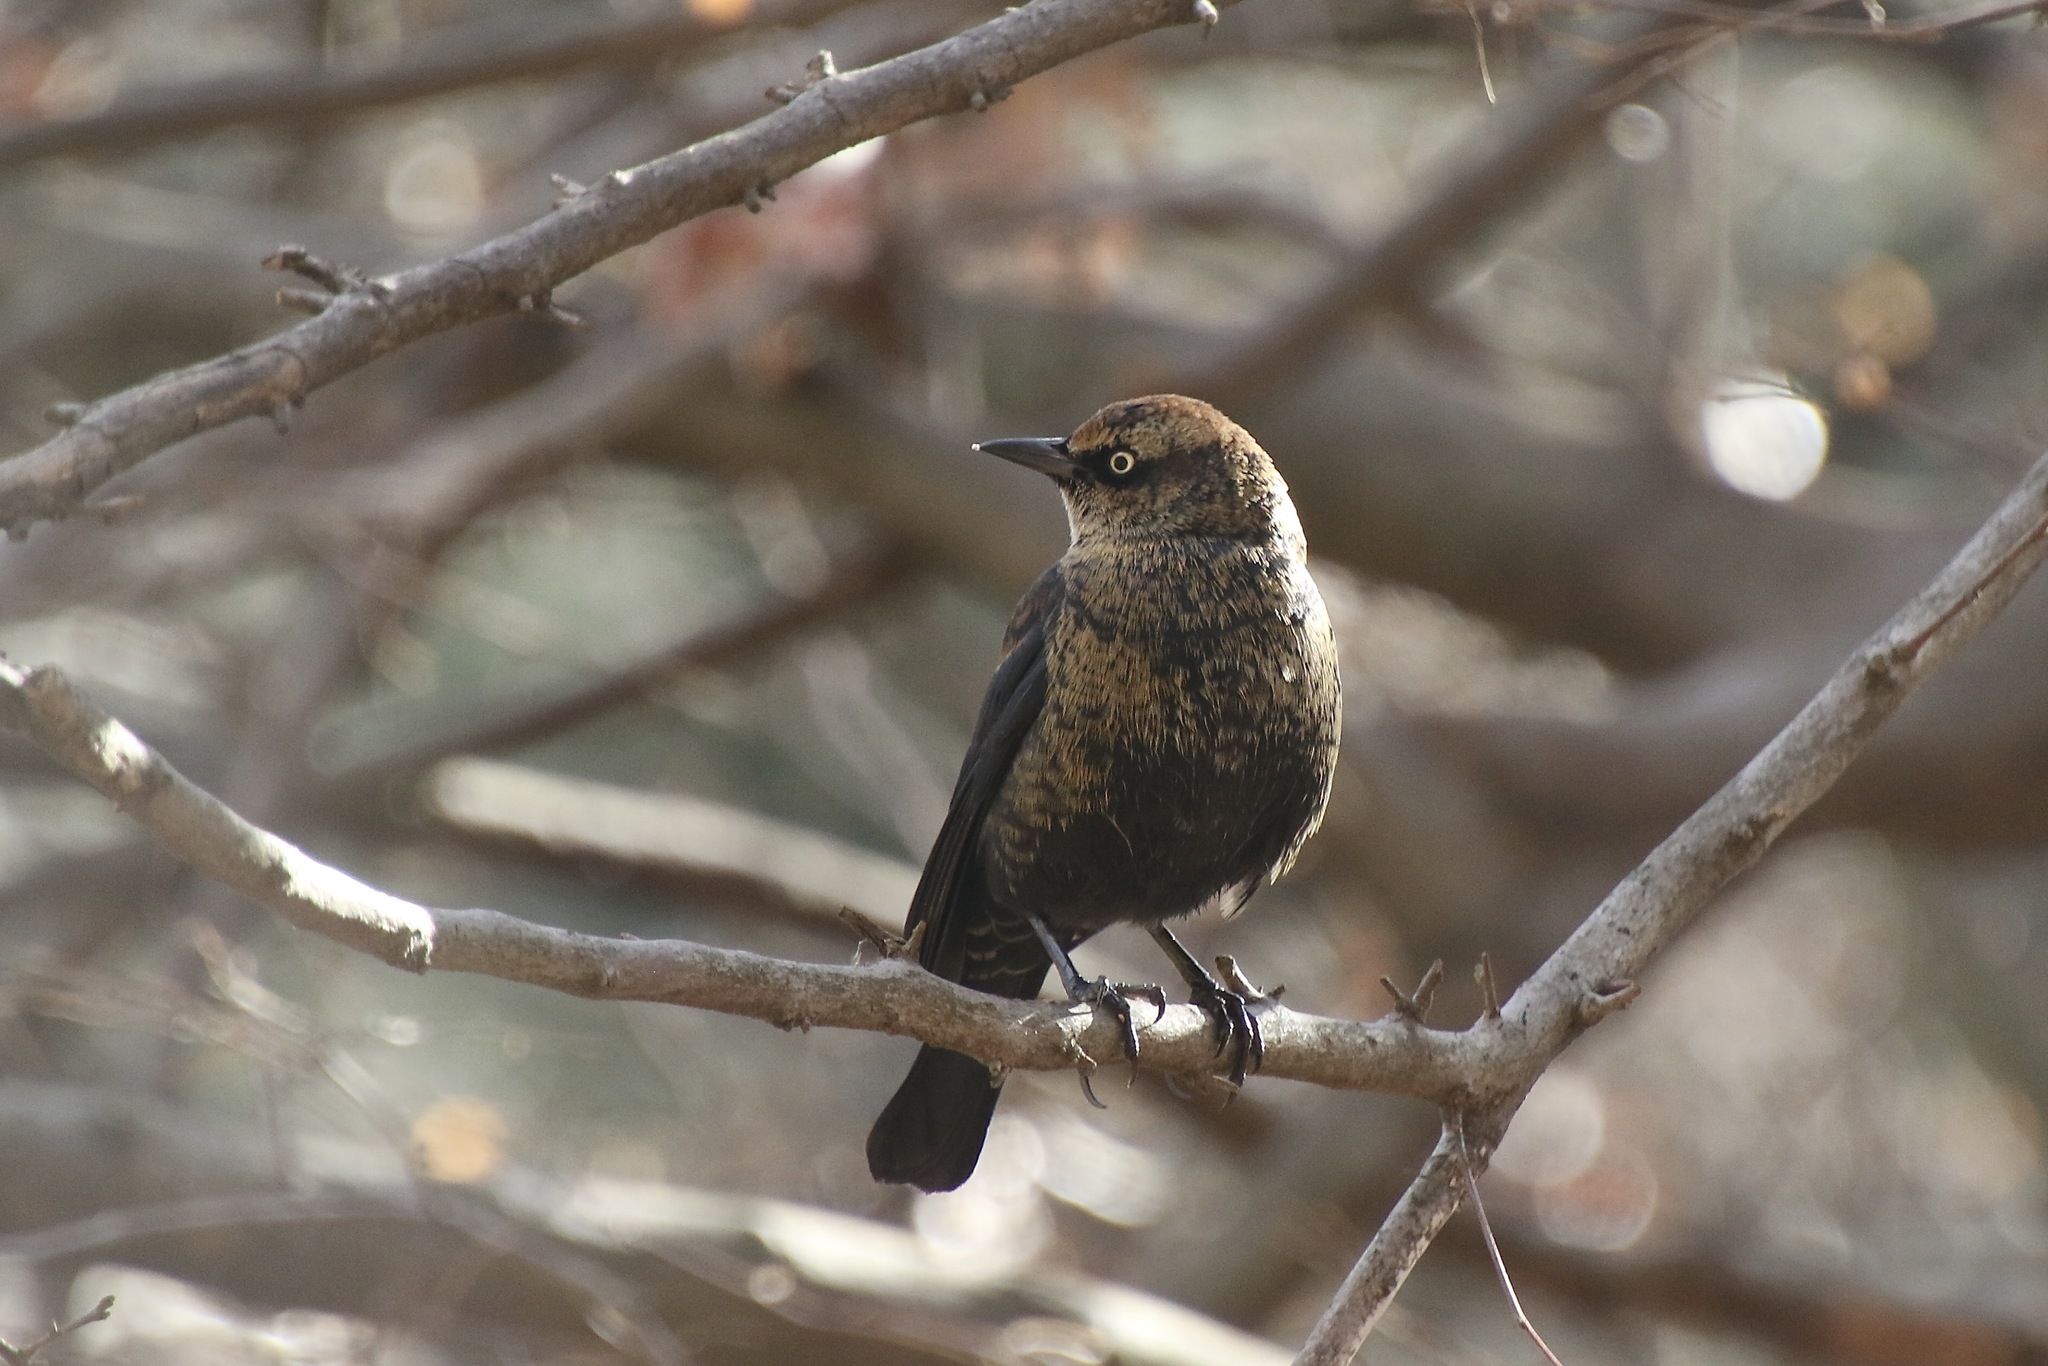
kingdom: Animalia
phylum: Chordata
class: Aves
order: Passeriformes
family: Icteridae
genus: Euphagus
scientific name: Euphagus carolinus
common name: Rusty blackbird
